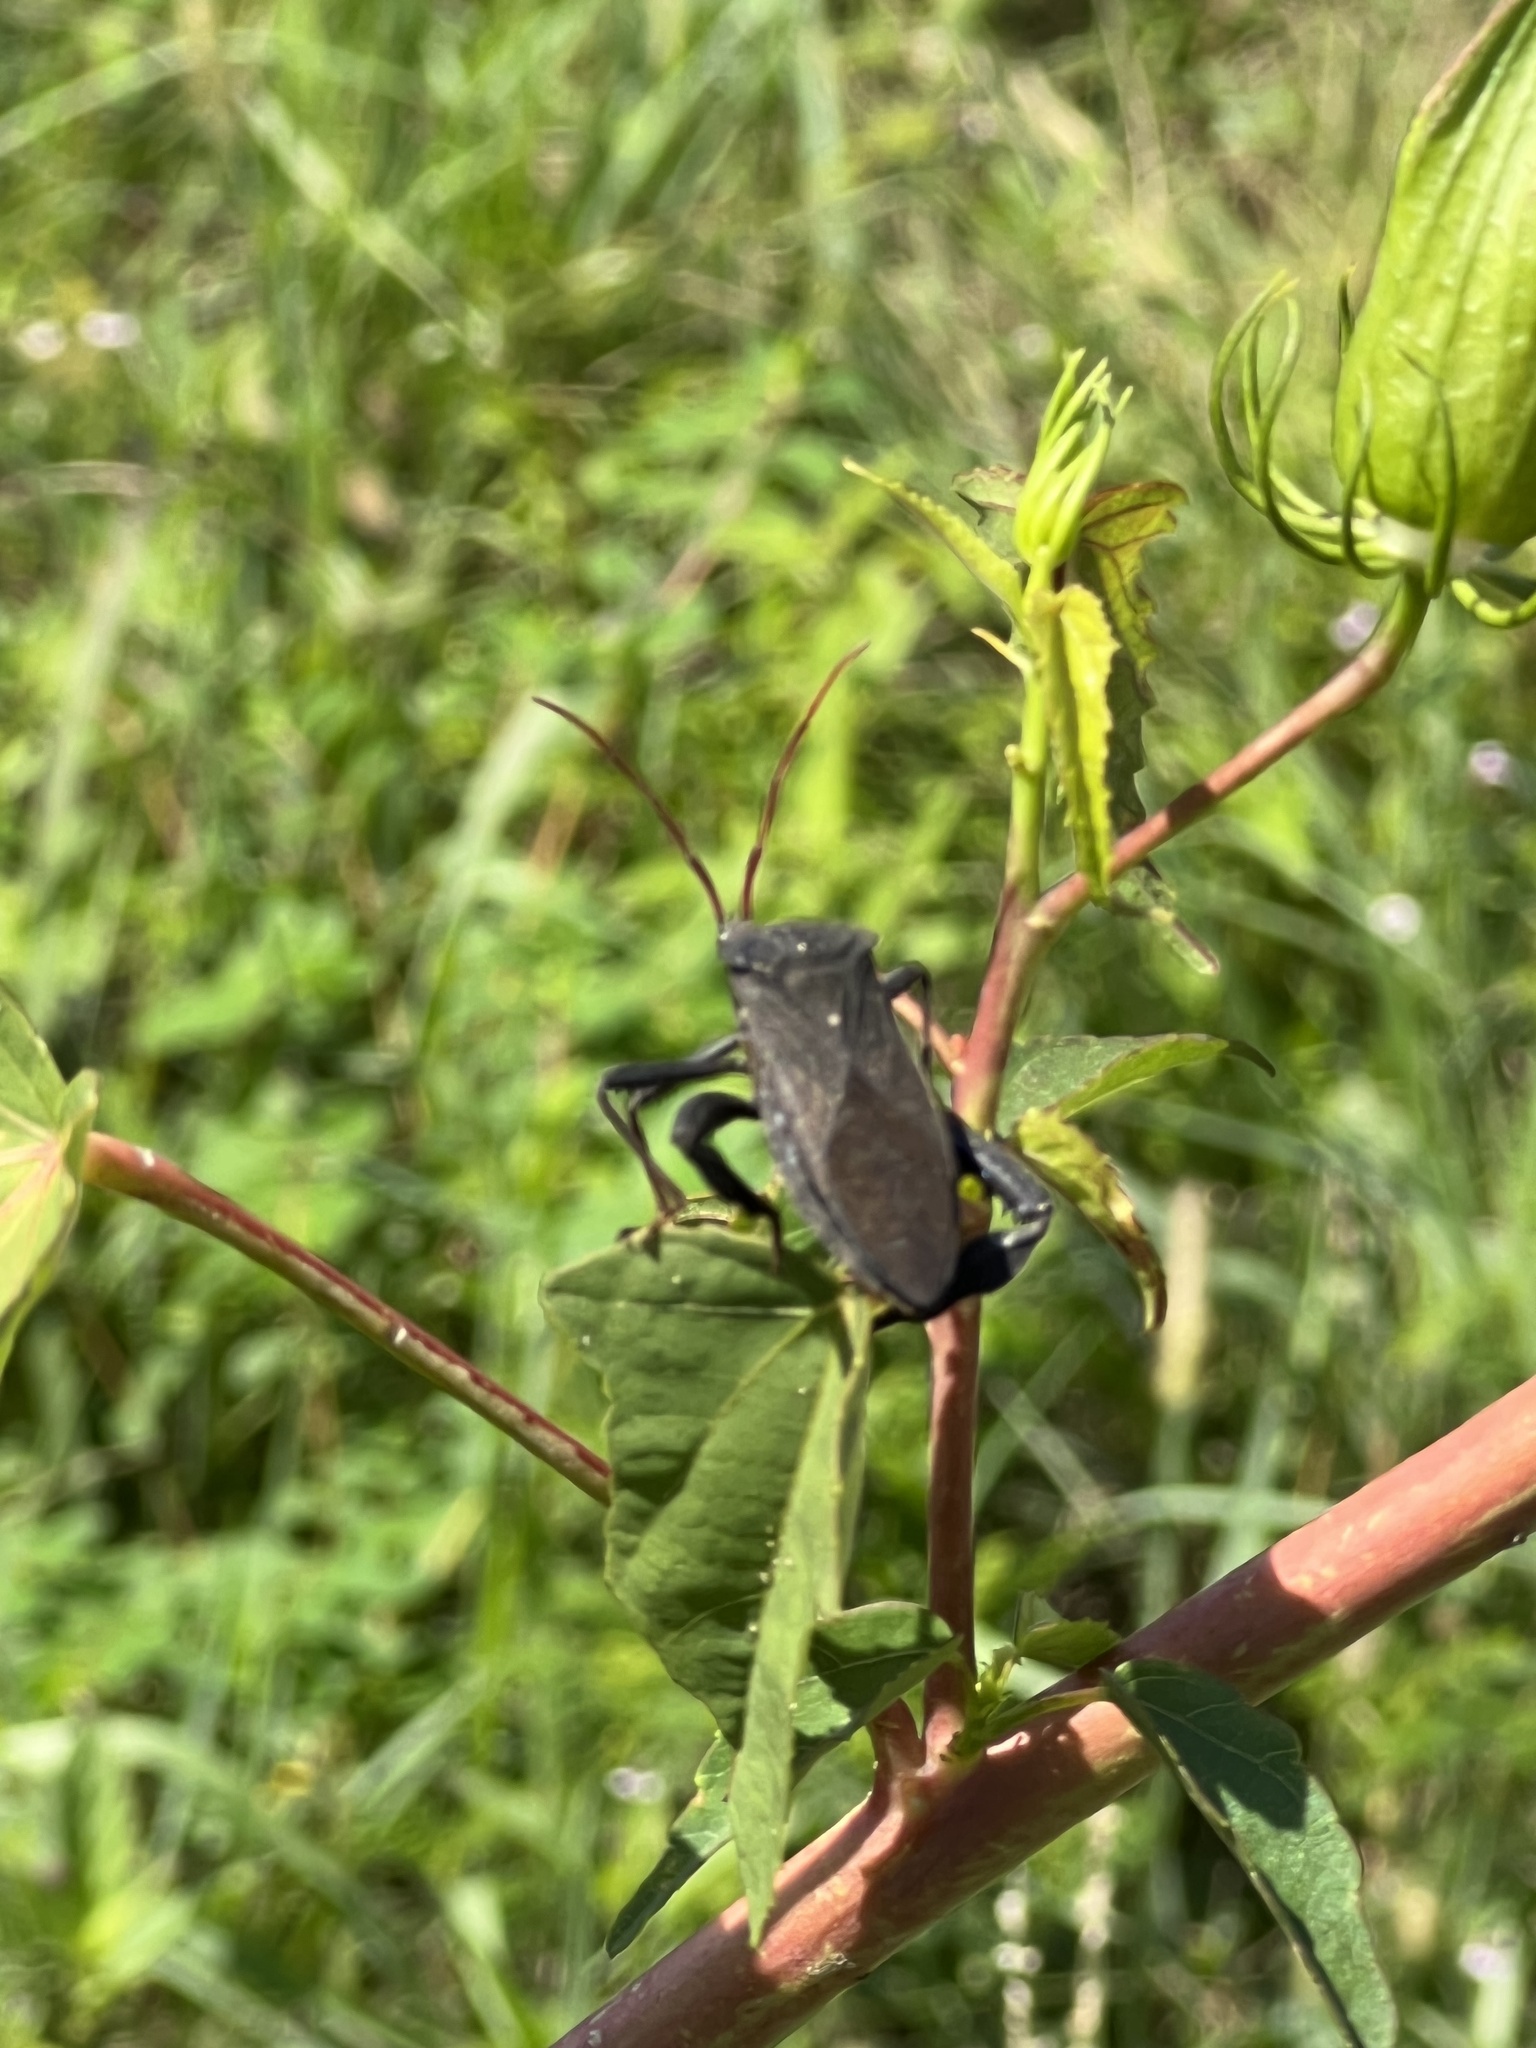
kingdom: Animalia
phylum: Arthropoda
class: Insecta
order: Hemiptera
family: Coreidae
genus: Acanthocephala
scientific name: Acanthocephala femorata
